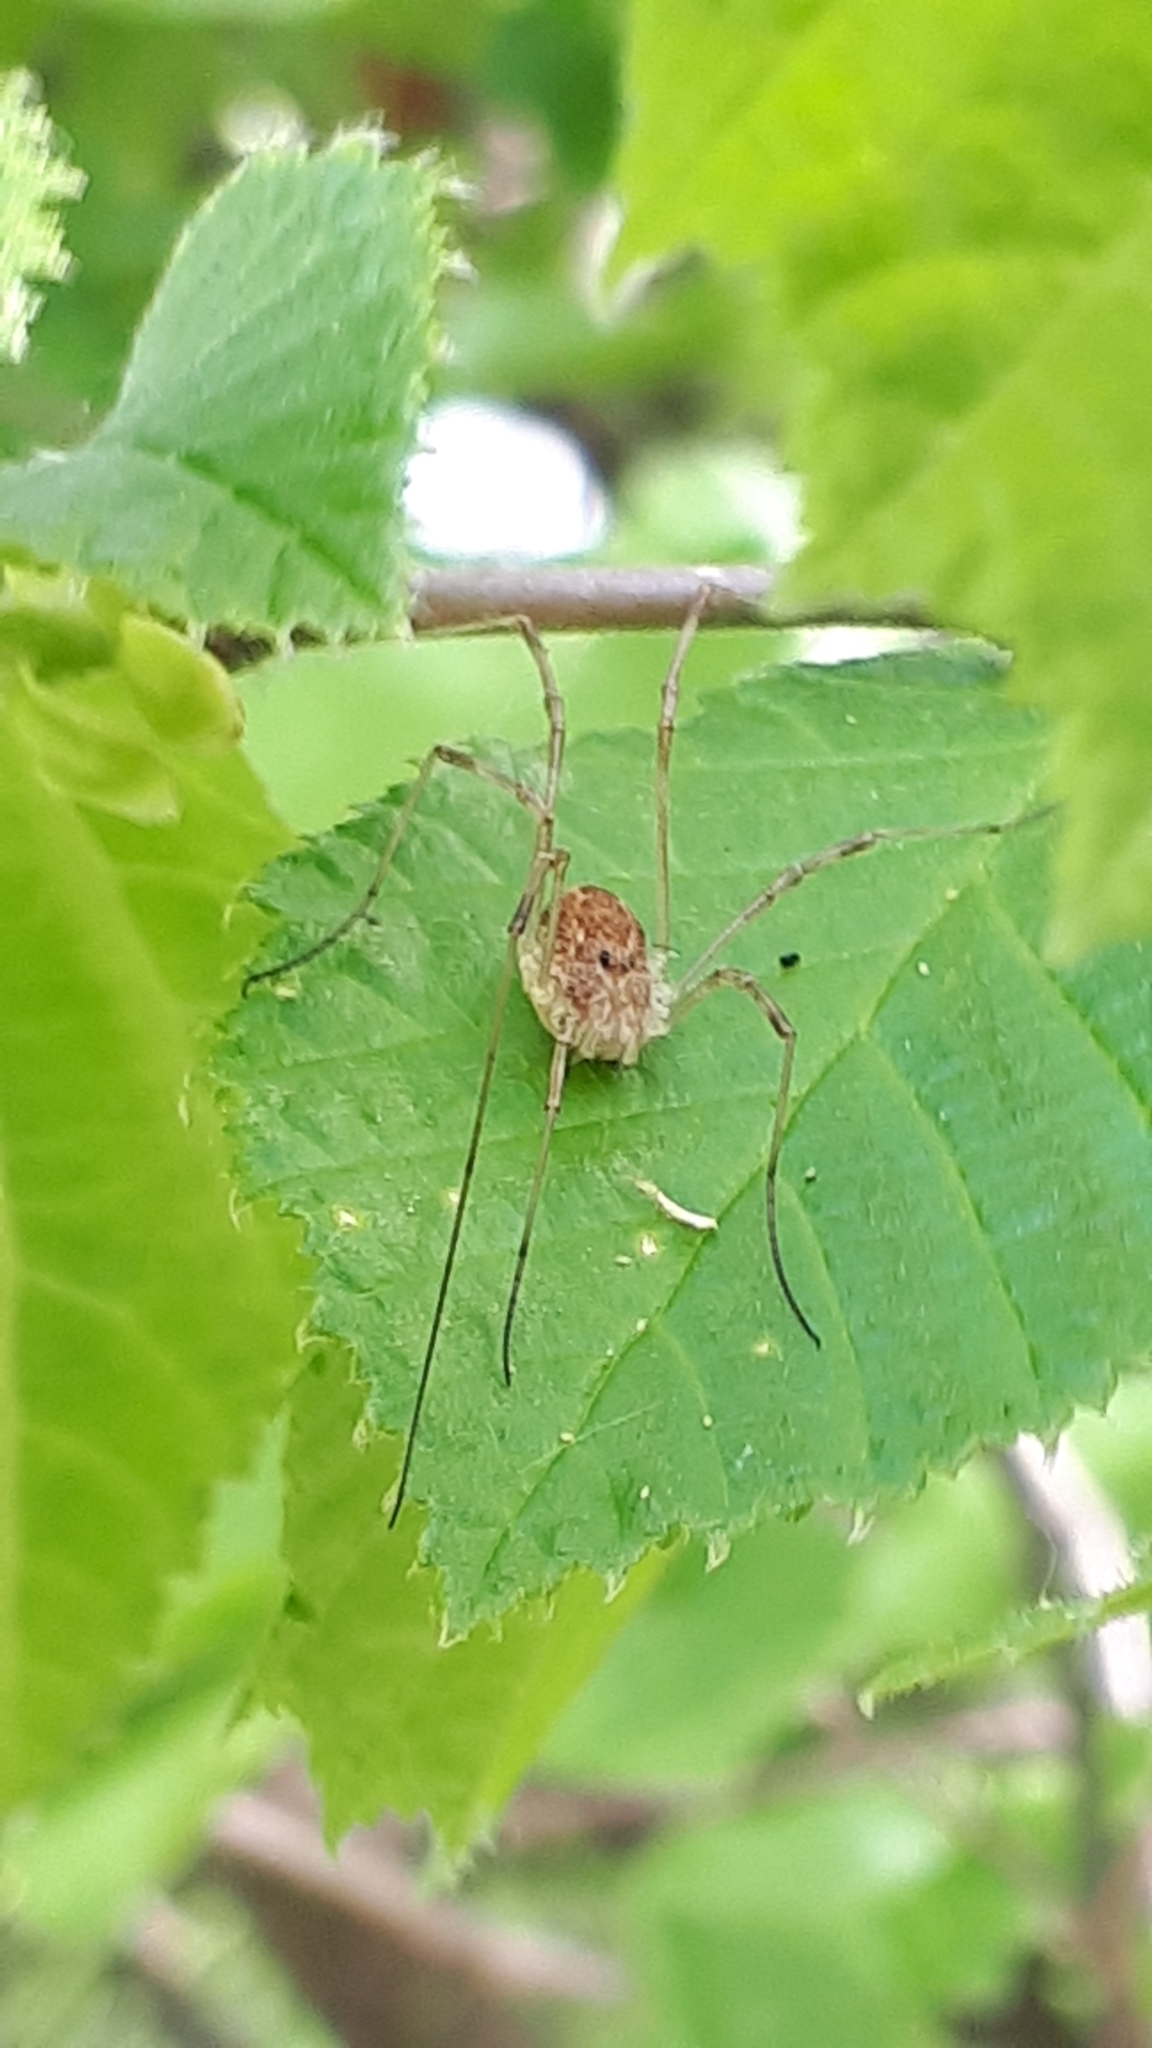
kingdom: Animalia
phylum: Arthropoda
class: Arachnida
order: Opiliones
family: Phalangiidae
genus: Rilaena
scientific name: Rilaena triangularis
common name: Spring harvestman
